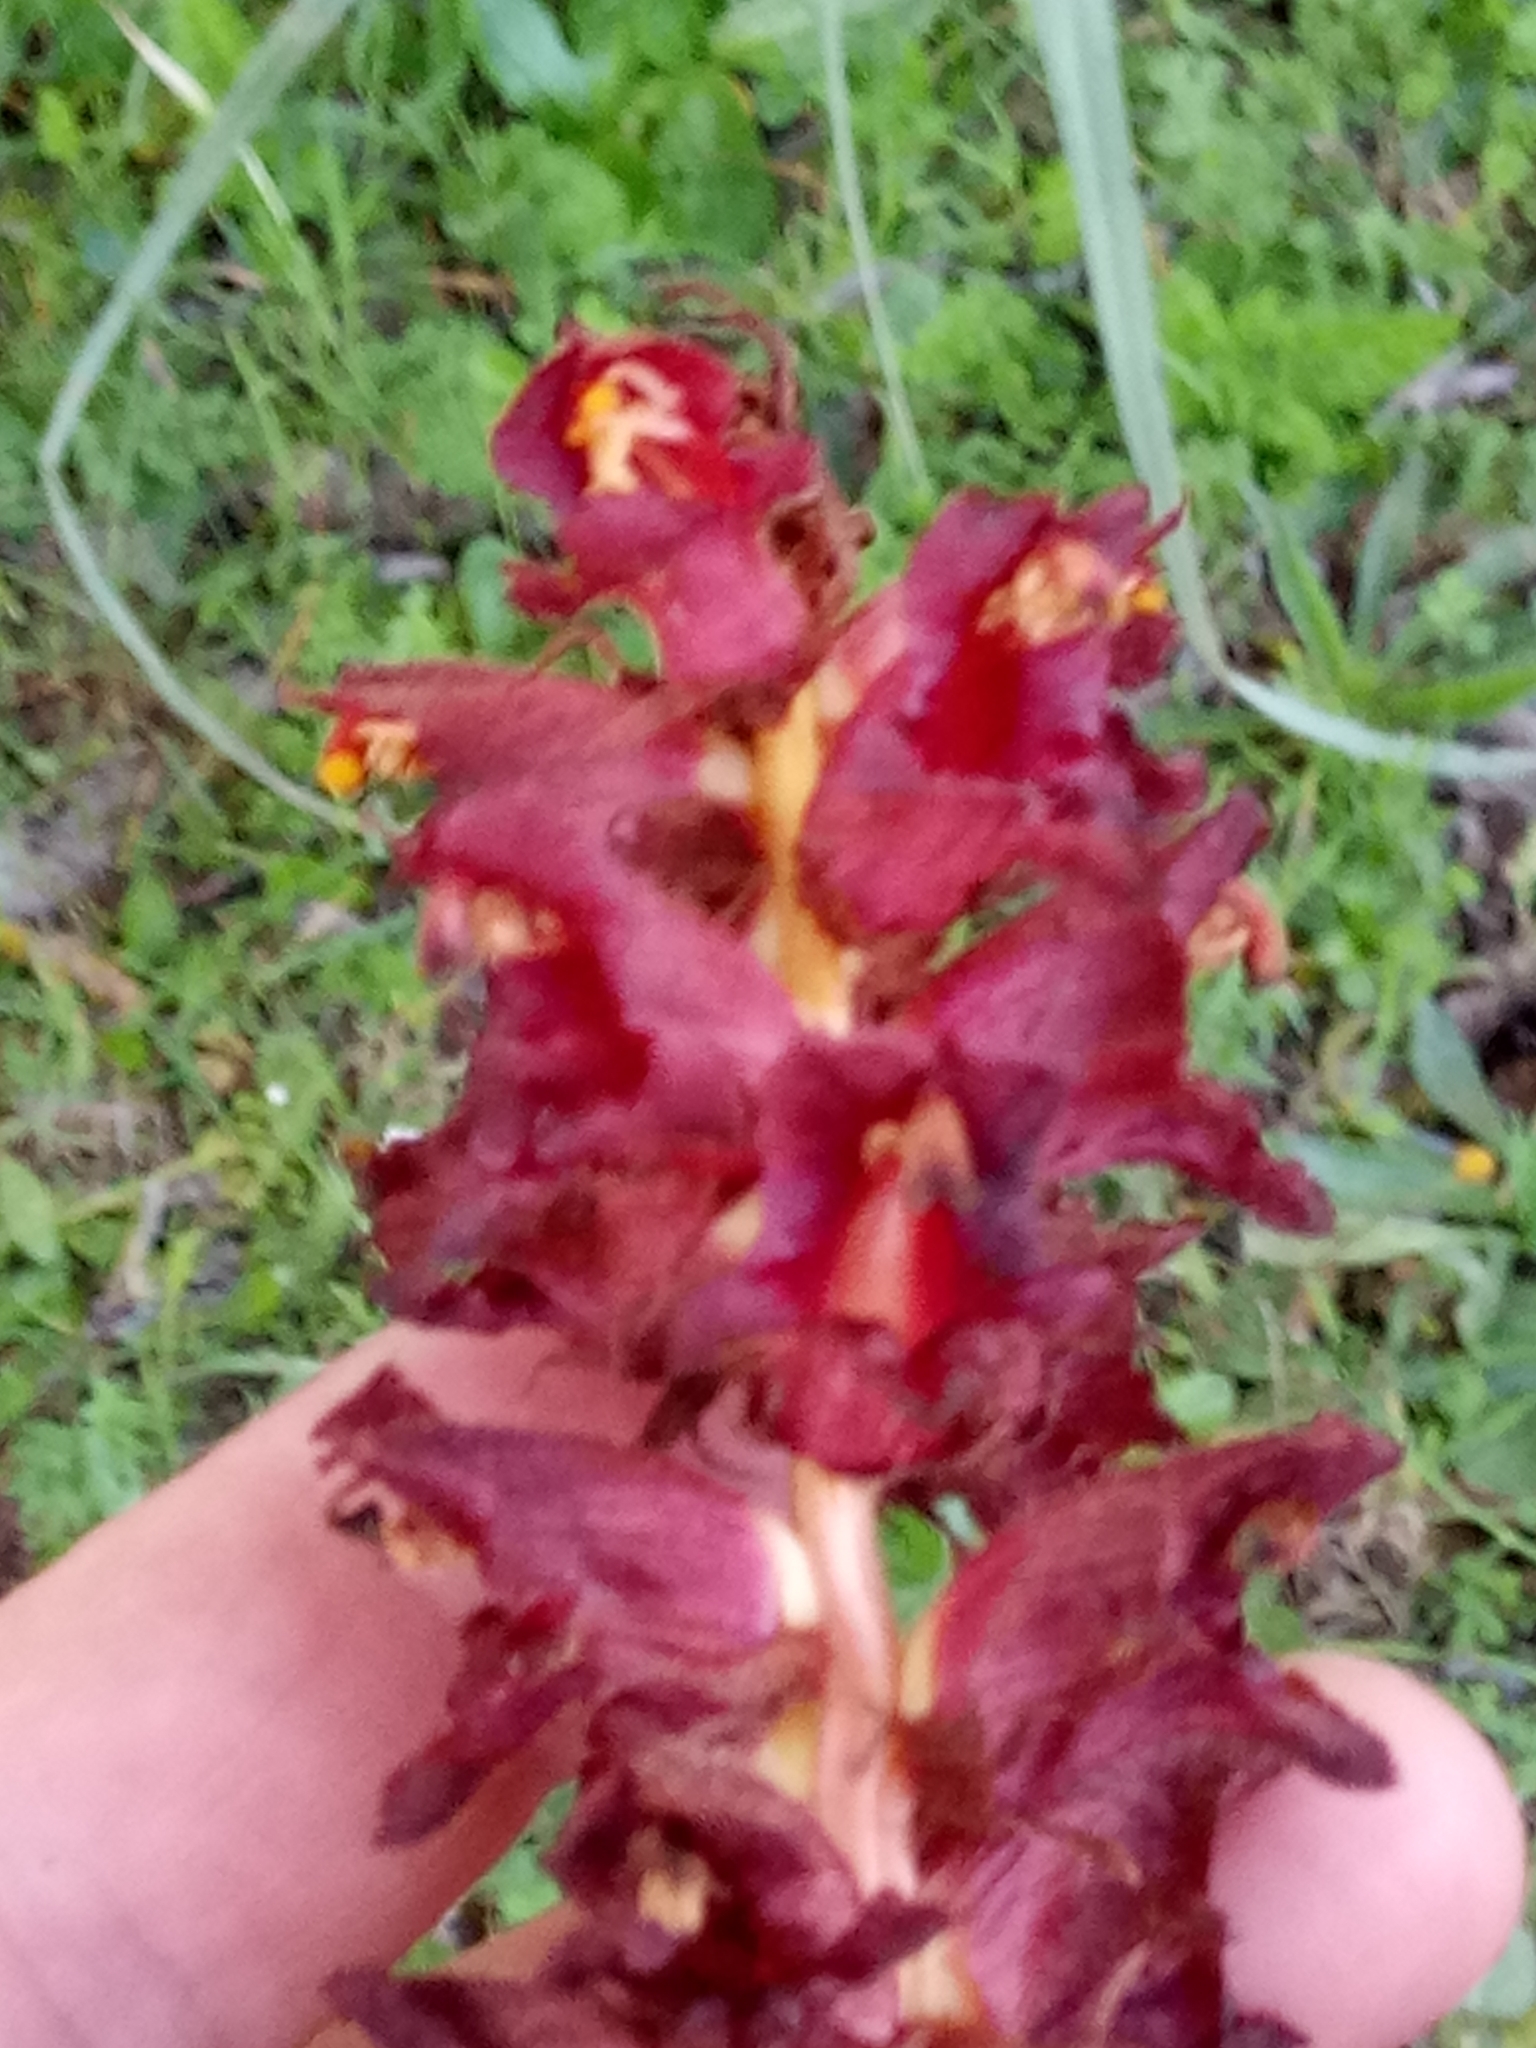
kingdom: Plantae
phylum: Tracheophyta
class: Magnoliopsida
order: Lamiales
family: Orobanchaceae
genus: Orobanche
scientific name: Orobanche variegata
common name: Variegated broomrape
